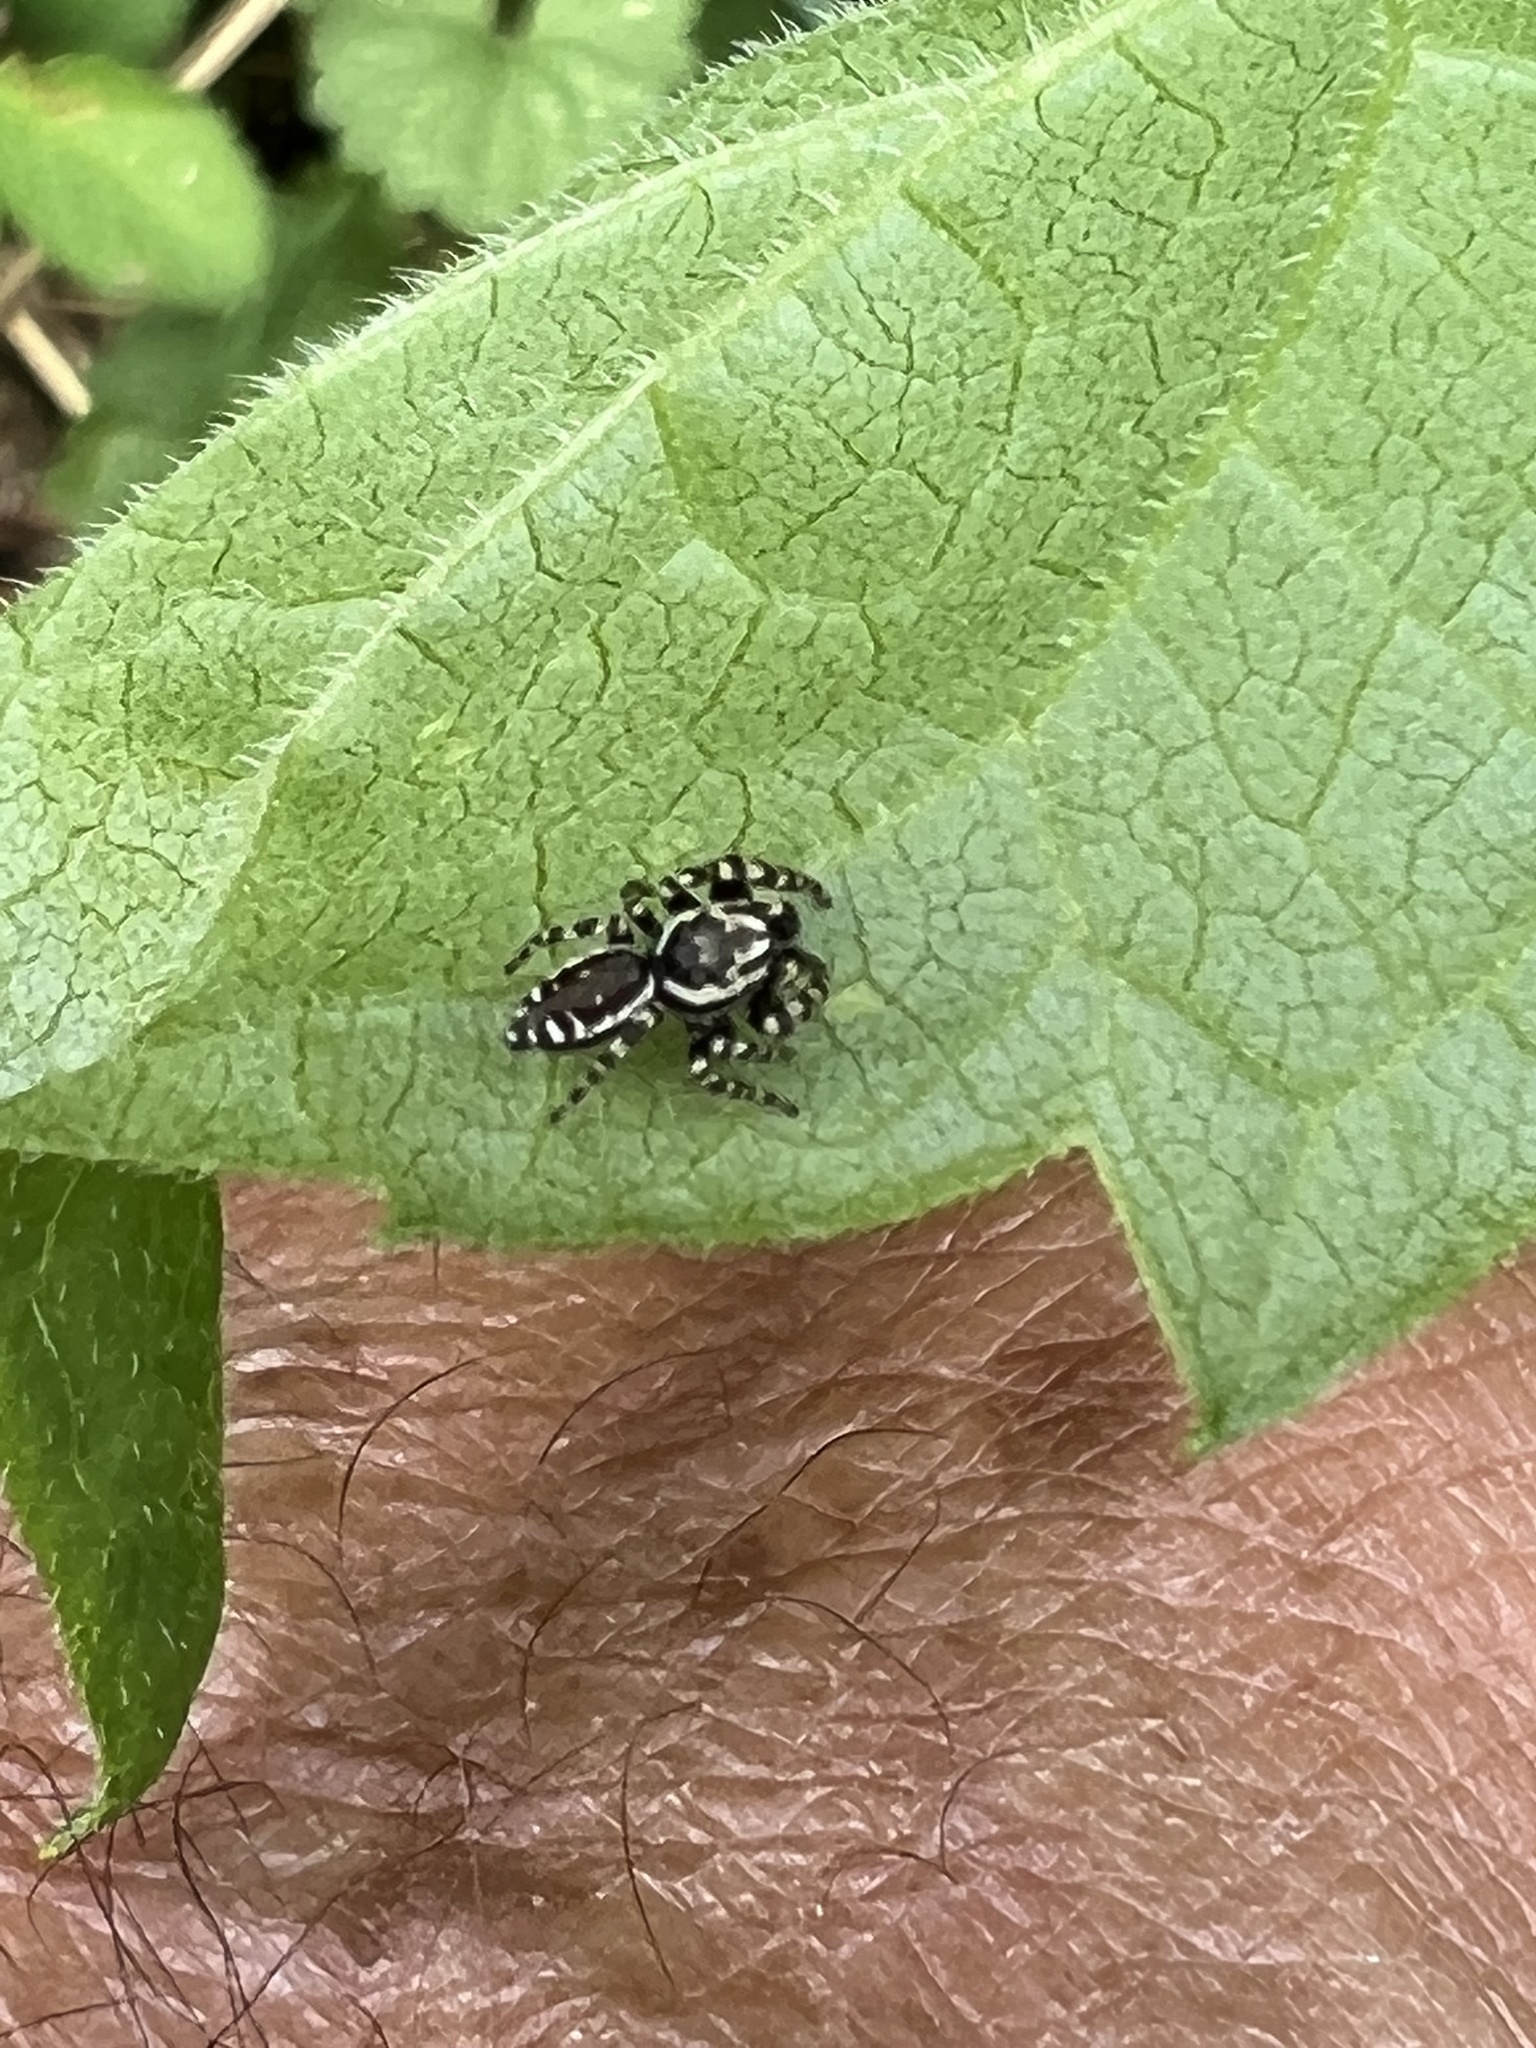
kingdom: Animalia
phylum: Arthropoda
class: Arachnida
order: Araneae
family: Salticidae
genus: Pelegrina
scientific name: Pelegrina galathea
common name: Jumping spiders
